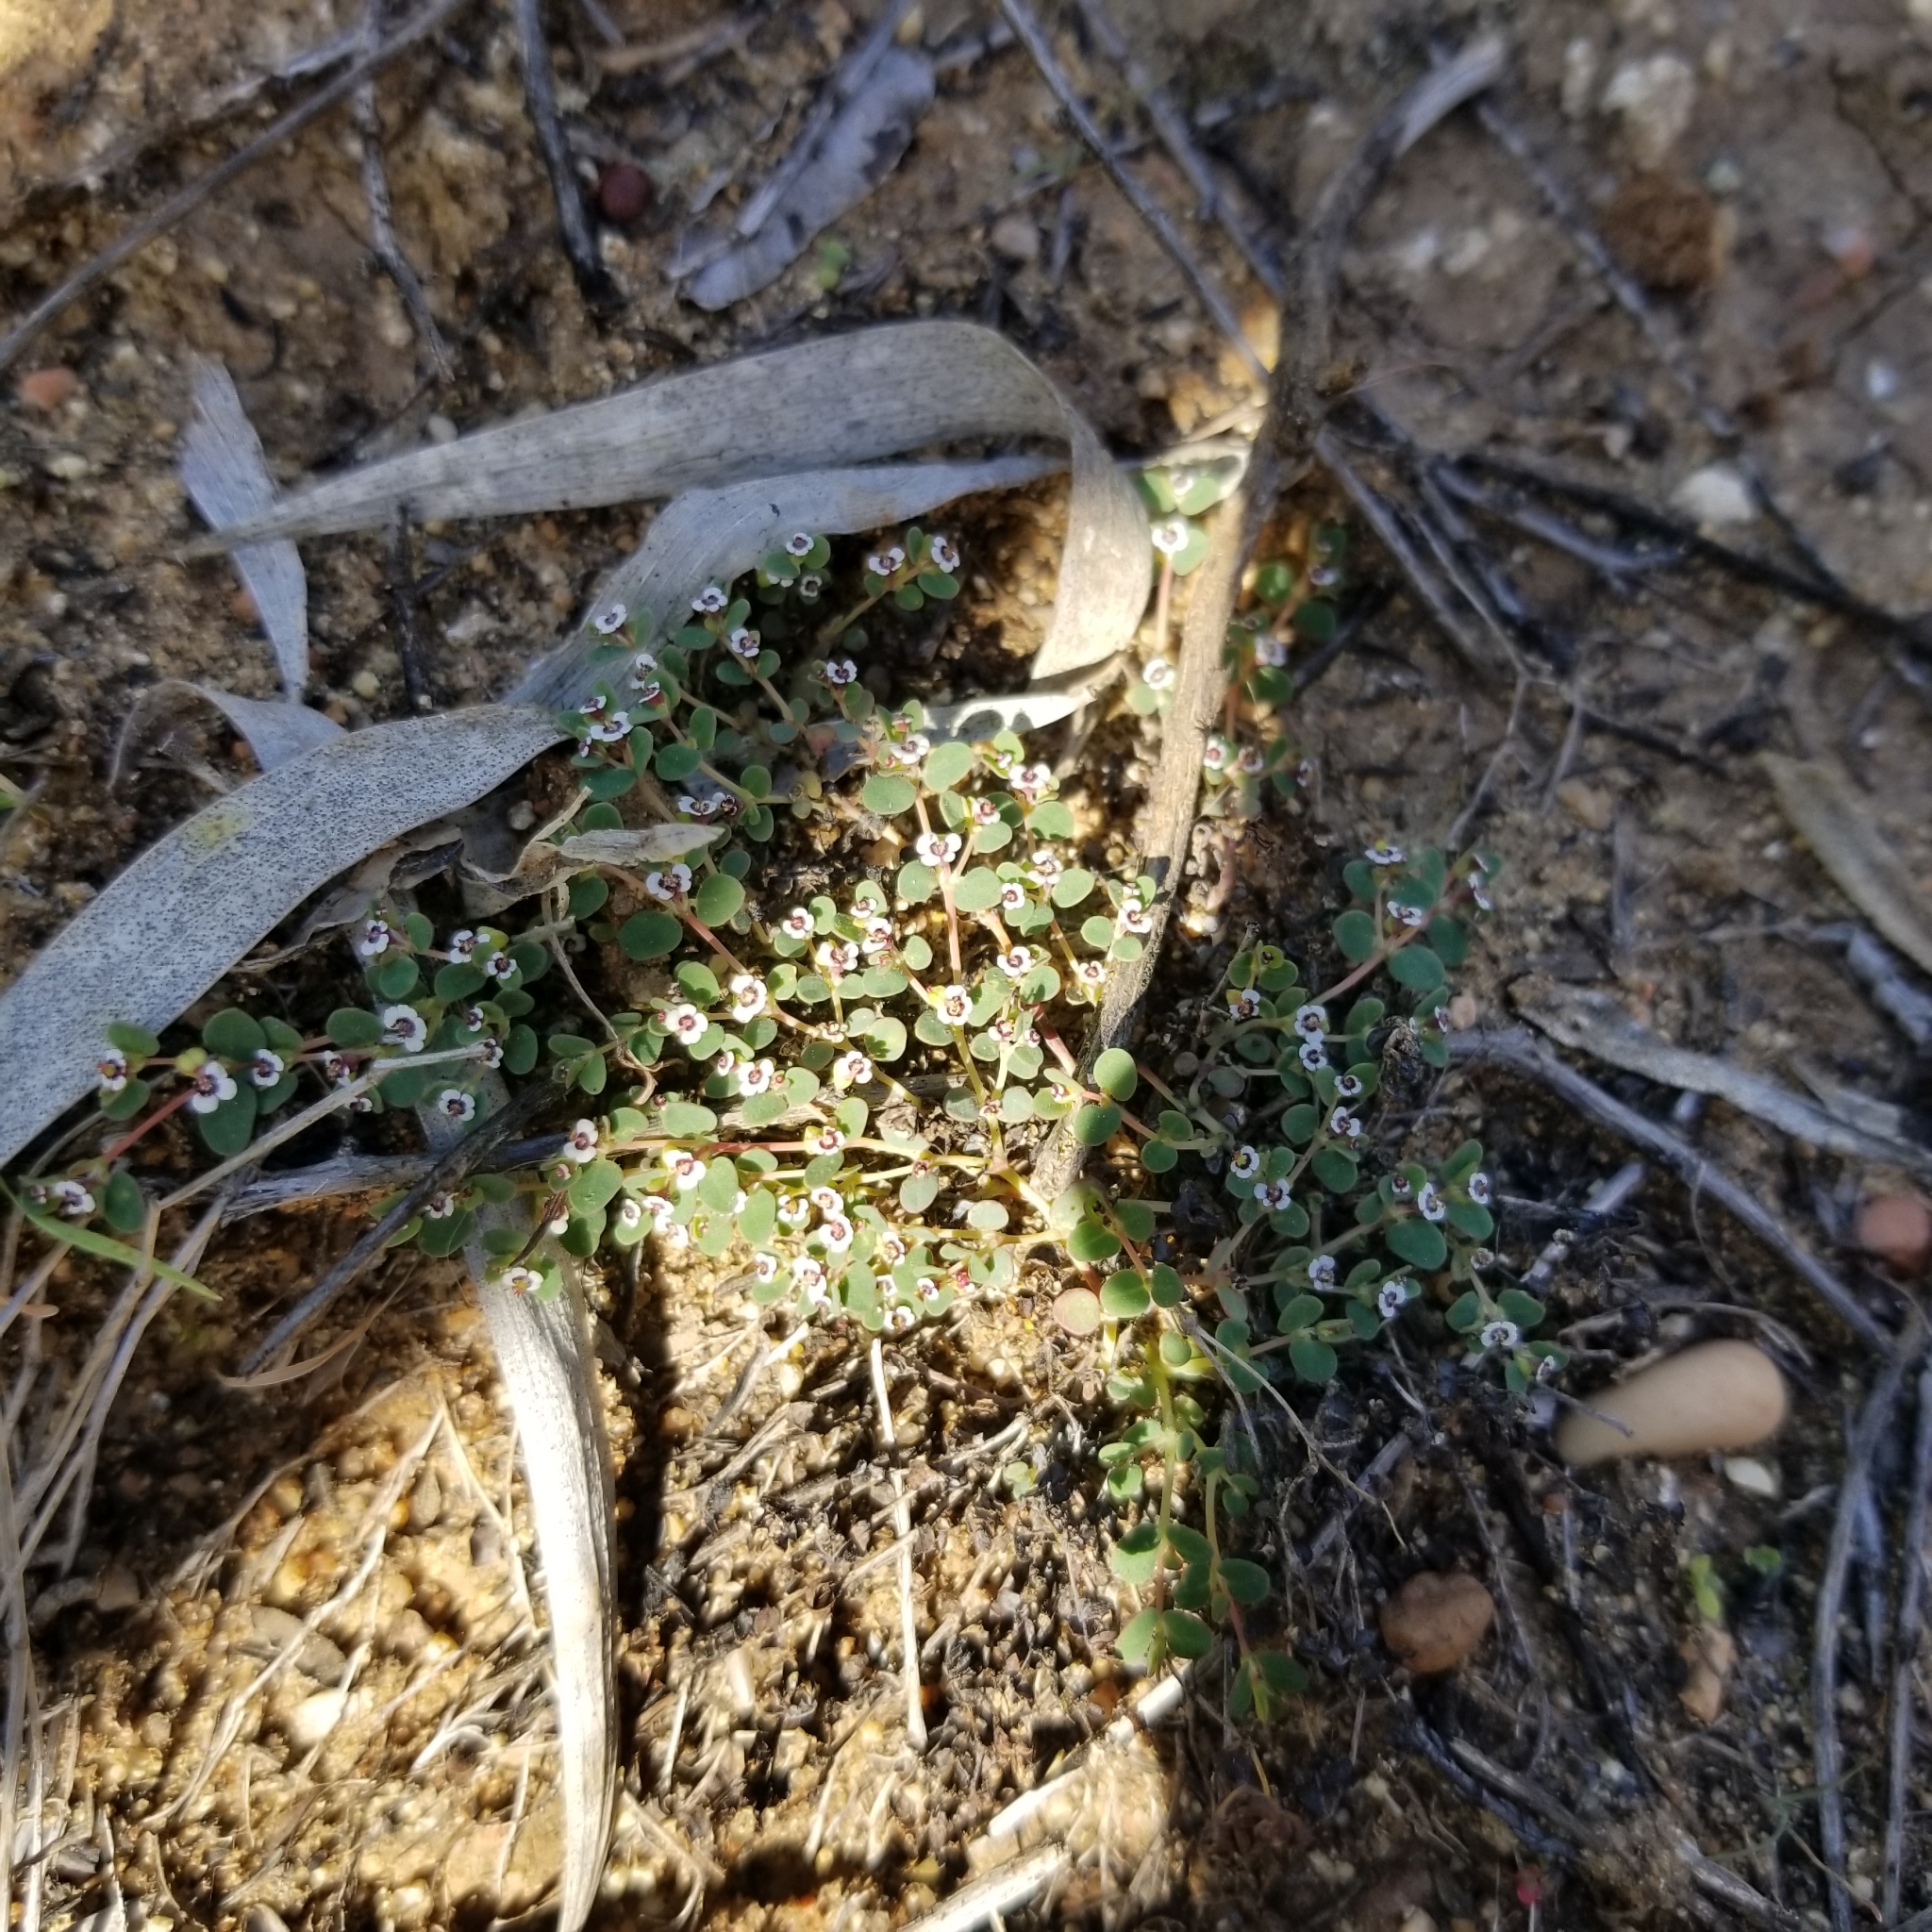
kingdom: Plantae
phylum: Tracheophyta
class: Magnoliopsida
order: Malpighiales
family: Euphorbiaceae
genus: Euphorbia
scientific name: Euphorbia polycarpa
